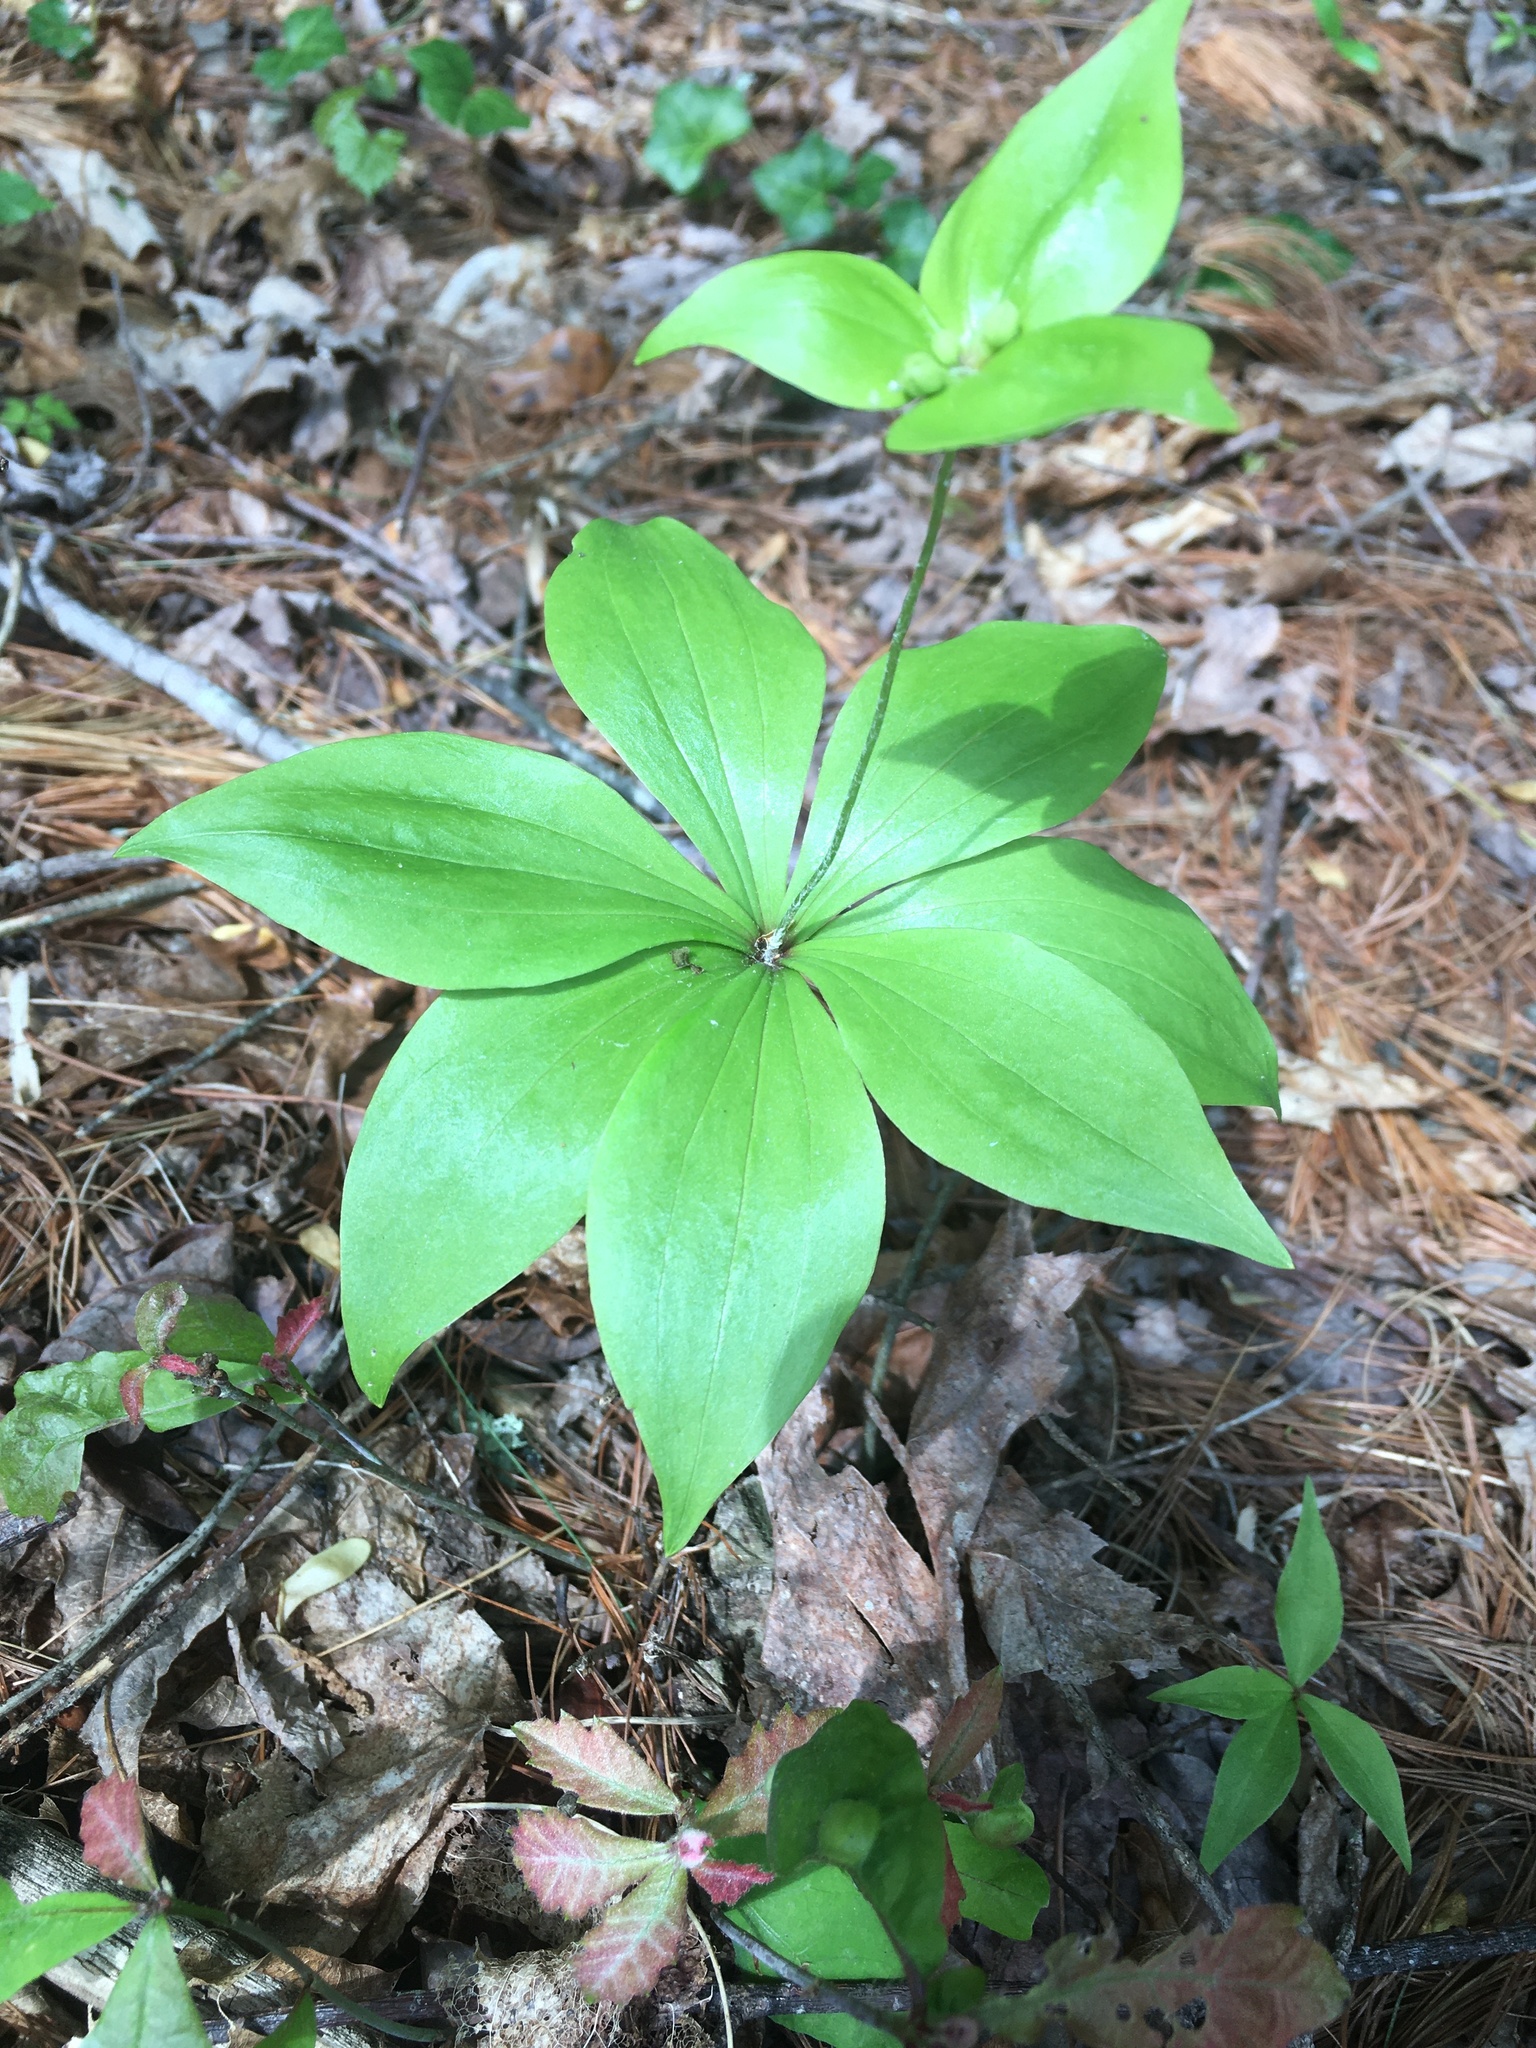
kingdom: Plantae
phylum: Tracheophyta
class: Liliopsida
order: Liliales
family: Liliaceae
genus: Medeola
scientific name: Medeola virginiana
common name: Indian cucumber-root
